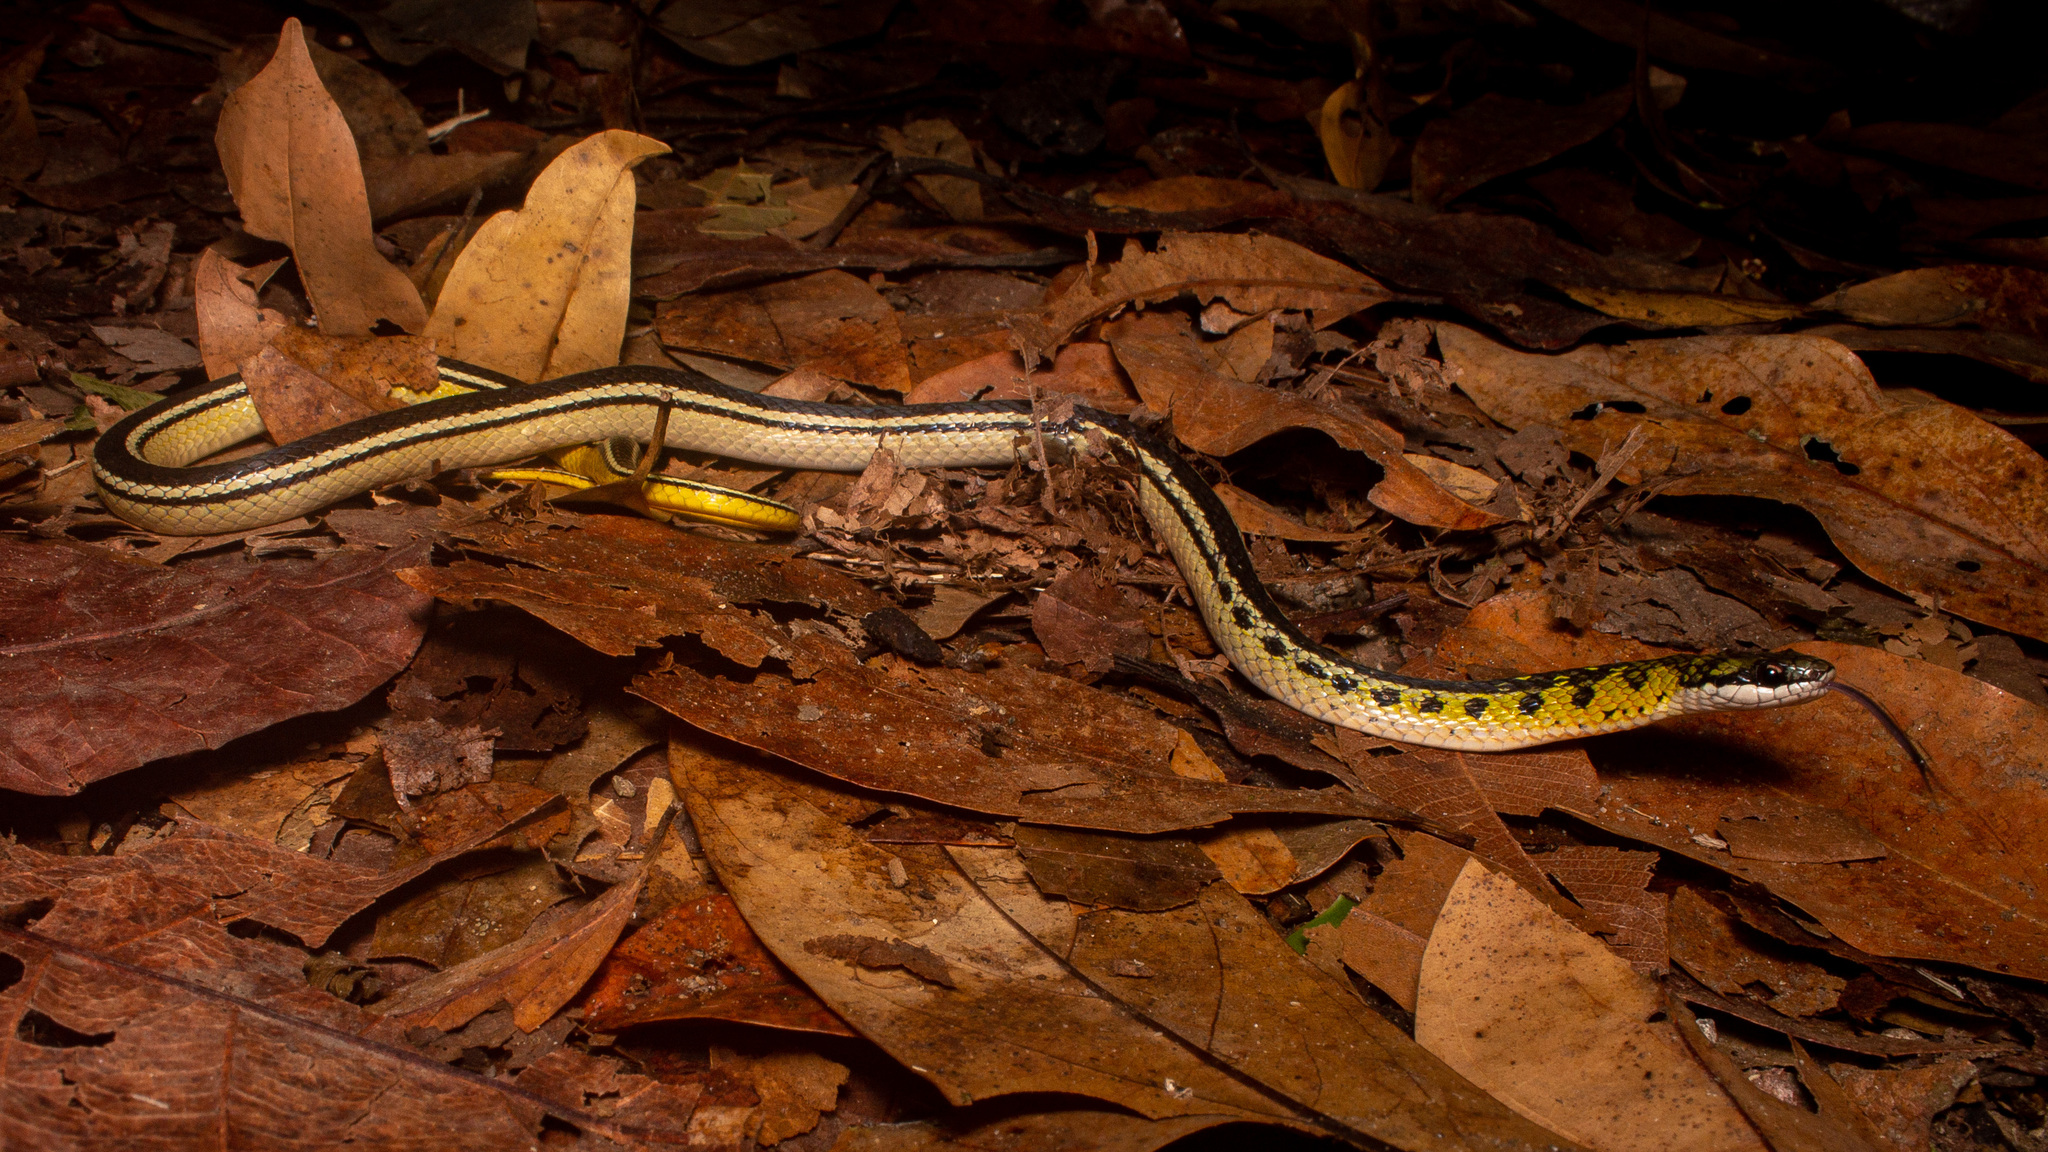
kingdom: Animalia
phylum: Chordata
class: Squamata
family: Colubridae
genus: Erythrolamprus
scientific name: Erythrolamprus melanotus
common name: Shaw's dark ground snake
